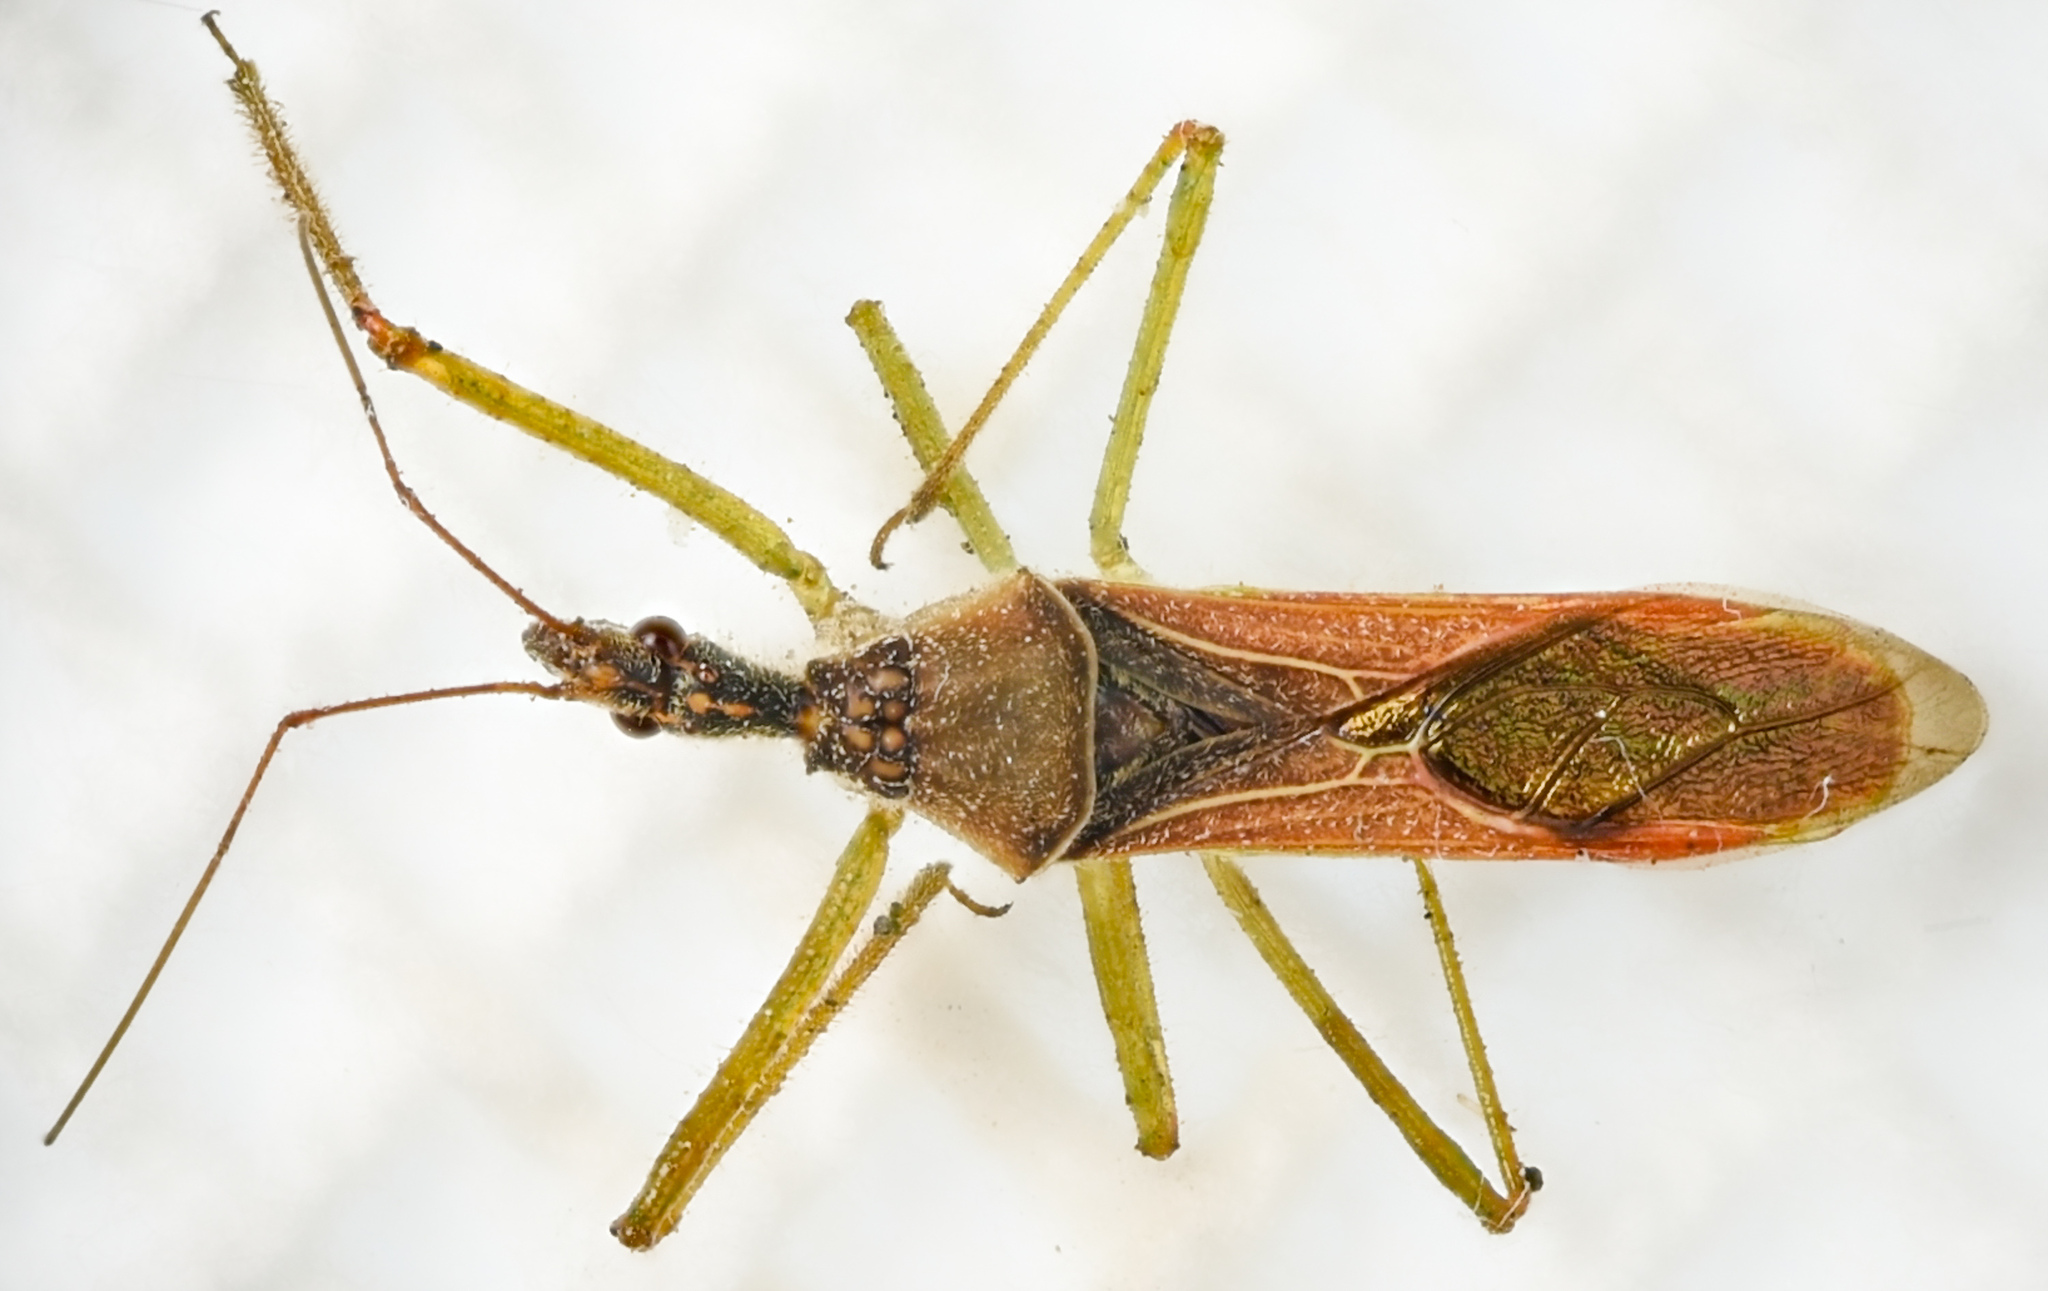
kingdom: Animalia
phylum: Arthropoda
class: Insecta
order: Hemiptera
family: Reduviidae
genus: Zelus
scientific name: Zelus renardii
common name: Assassin bug
